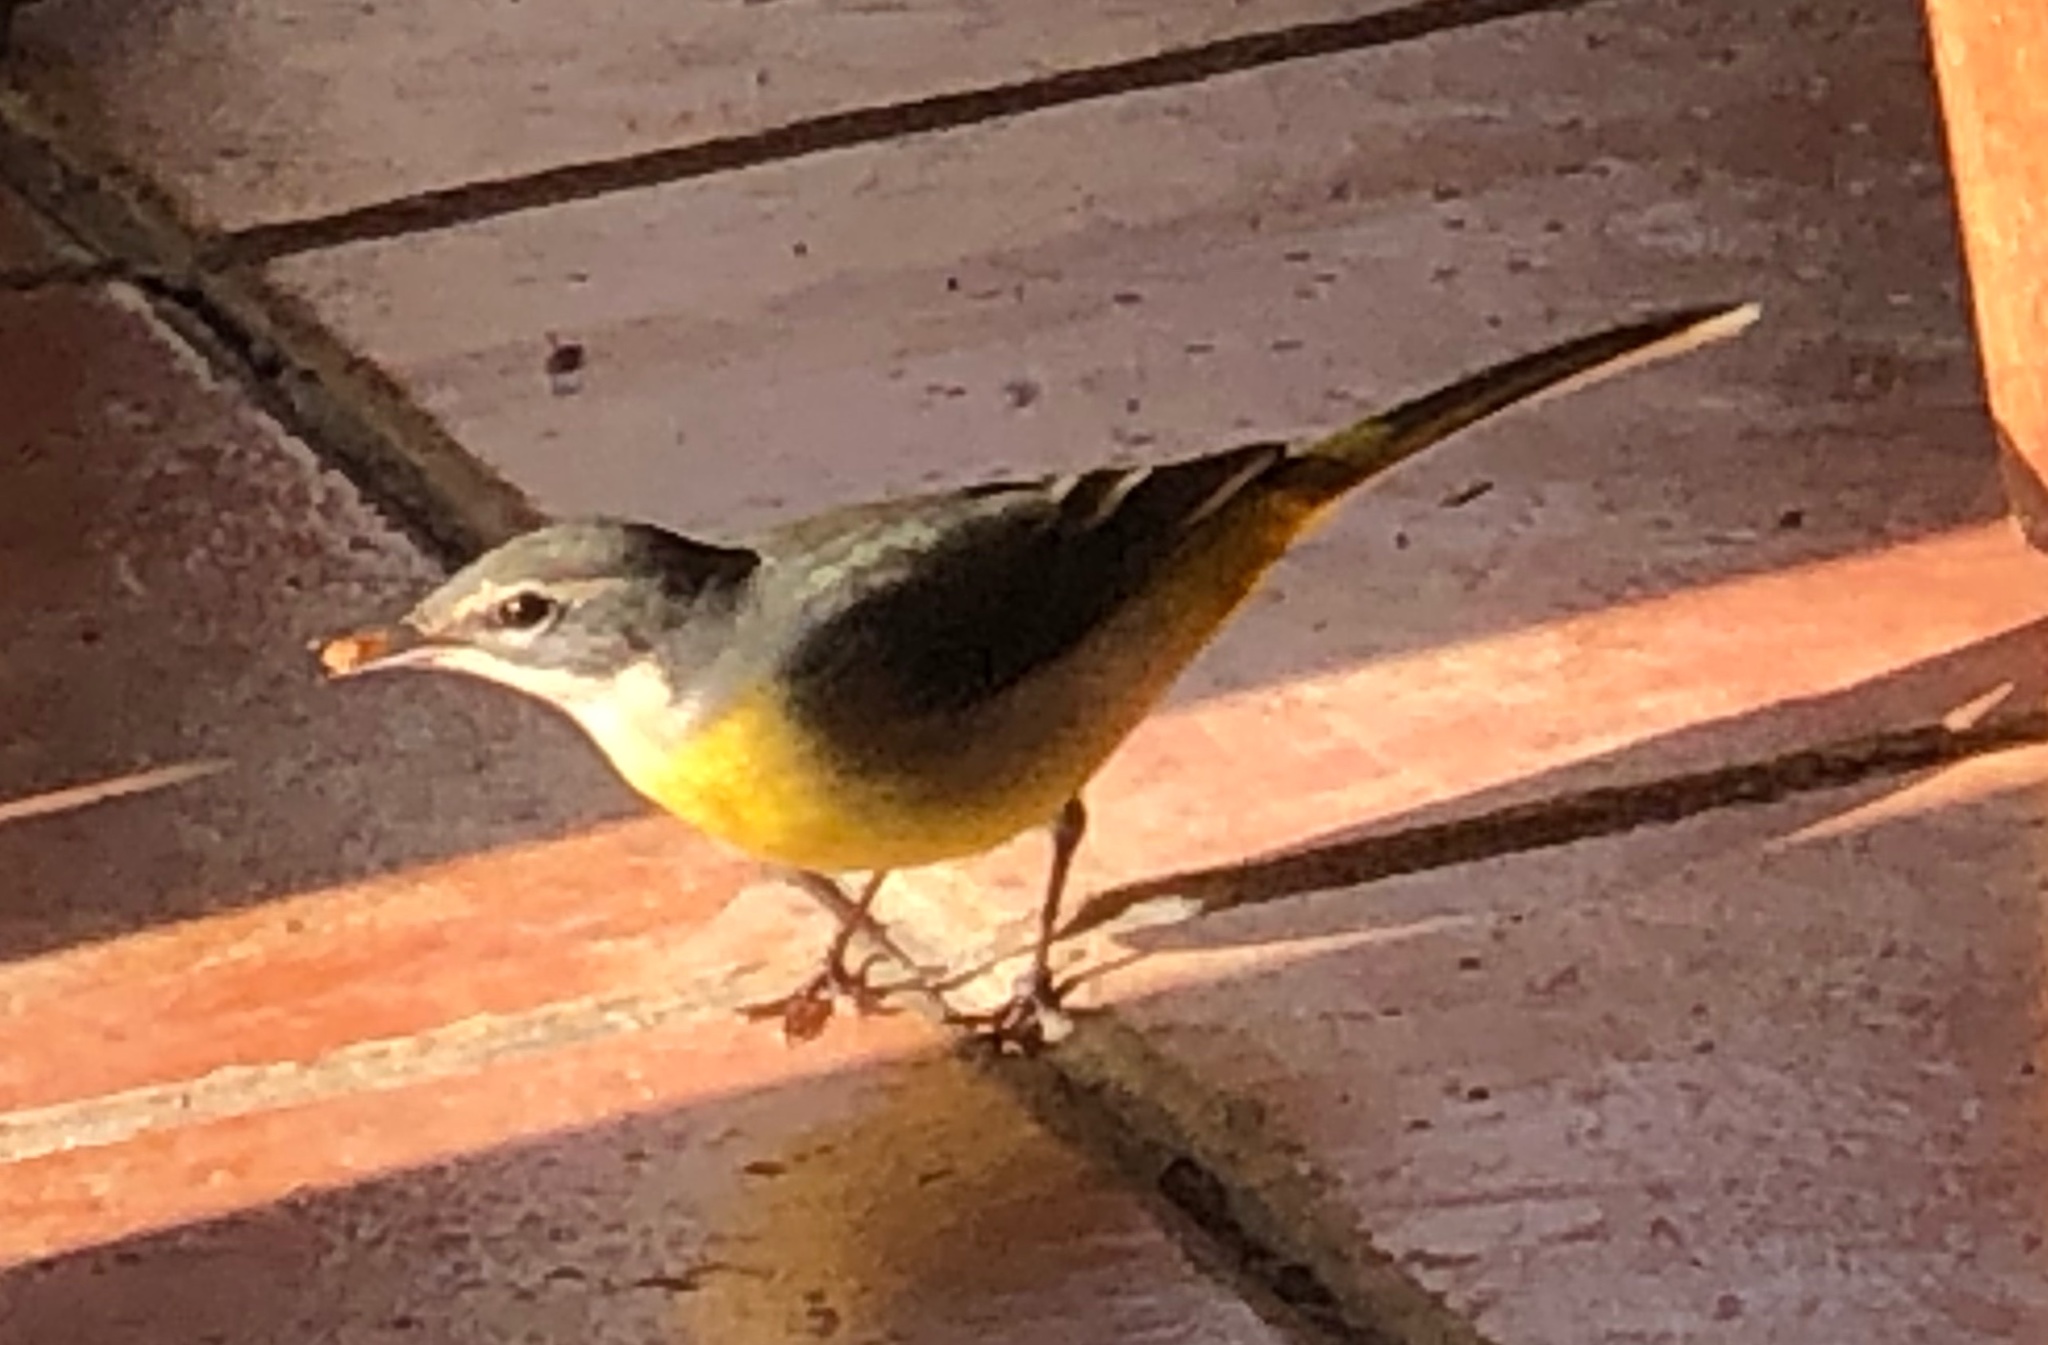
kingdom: Animalia
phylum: Chordata
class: Aves
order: Passeriformes
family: Motacillidae
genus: Motacilla
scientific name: Motacilla cinerea
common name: Grey wagtail
